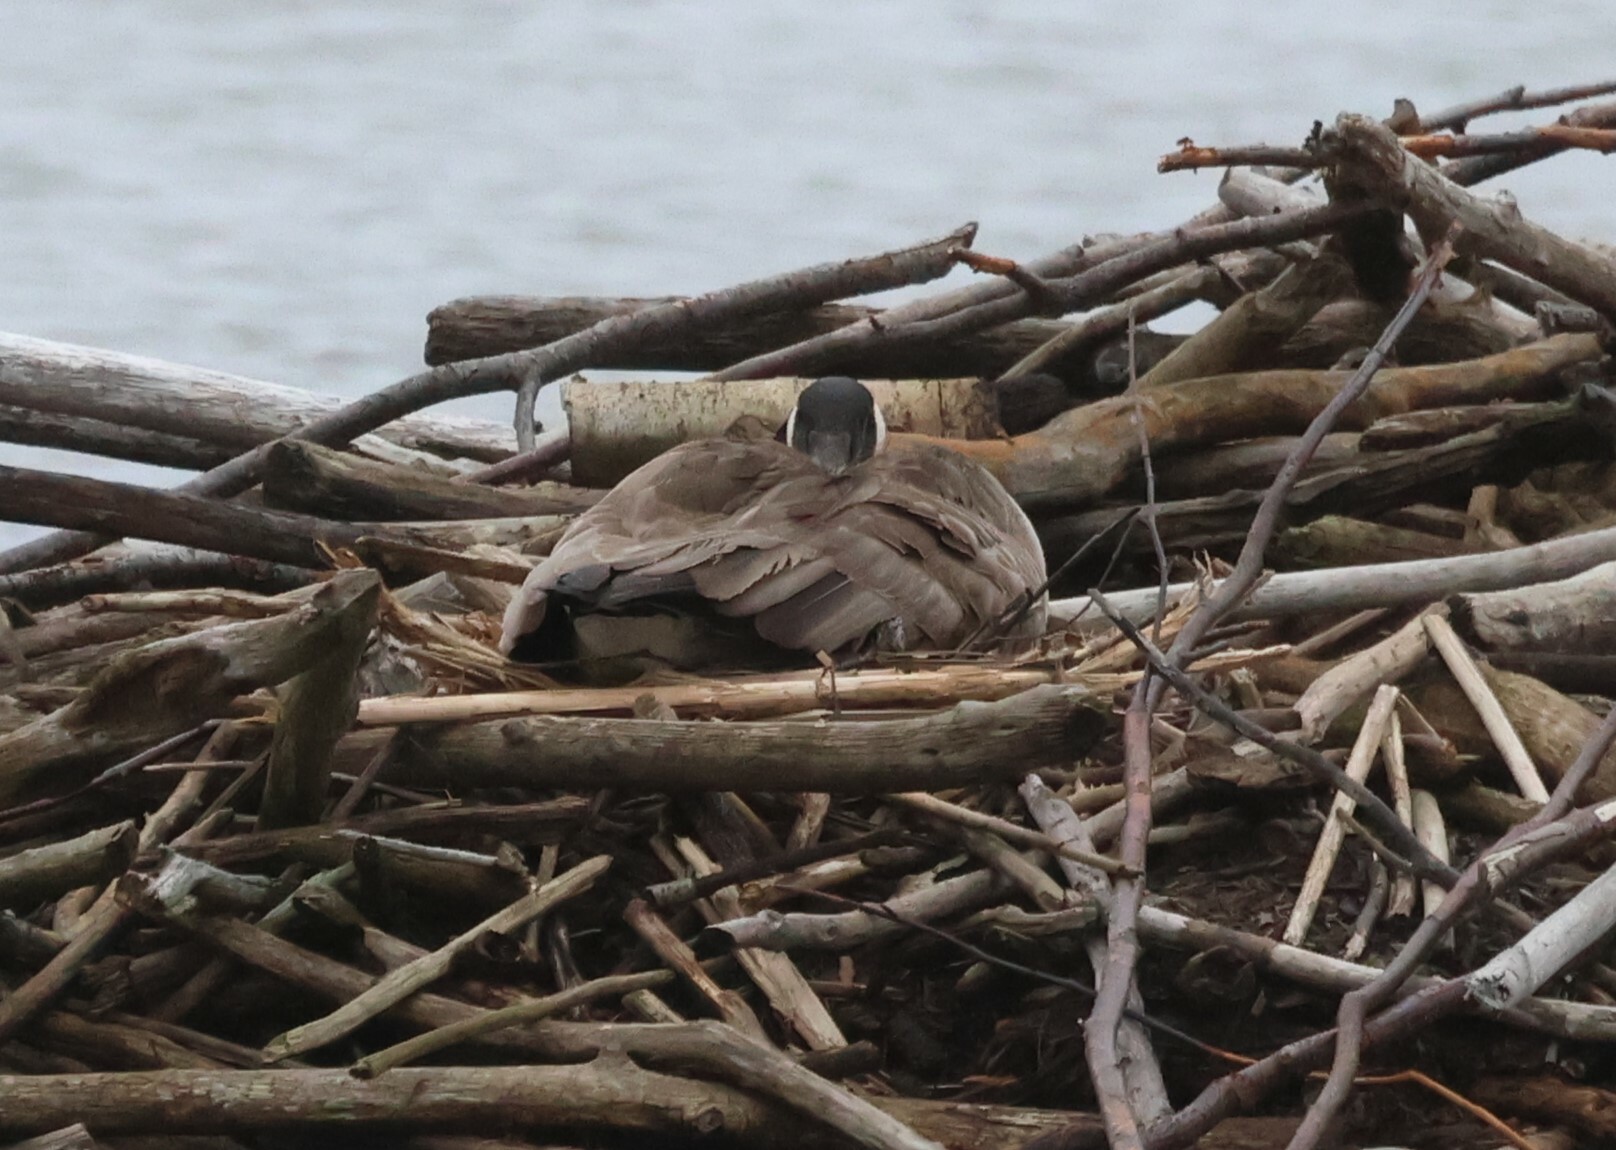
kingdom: Animalia
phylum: Chordata
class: Aves
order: Anseriformes
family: Anatidae
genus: Branta
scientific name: Branta canadensis
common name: Canada goose
